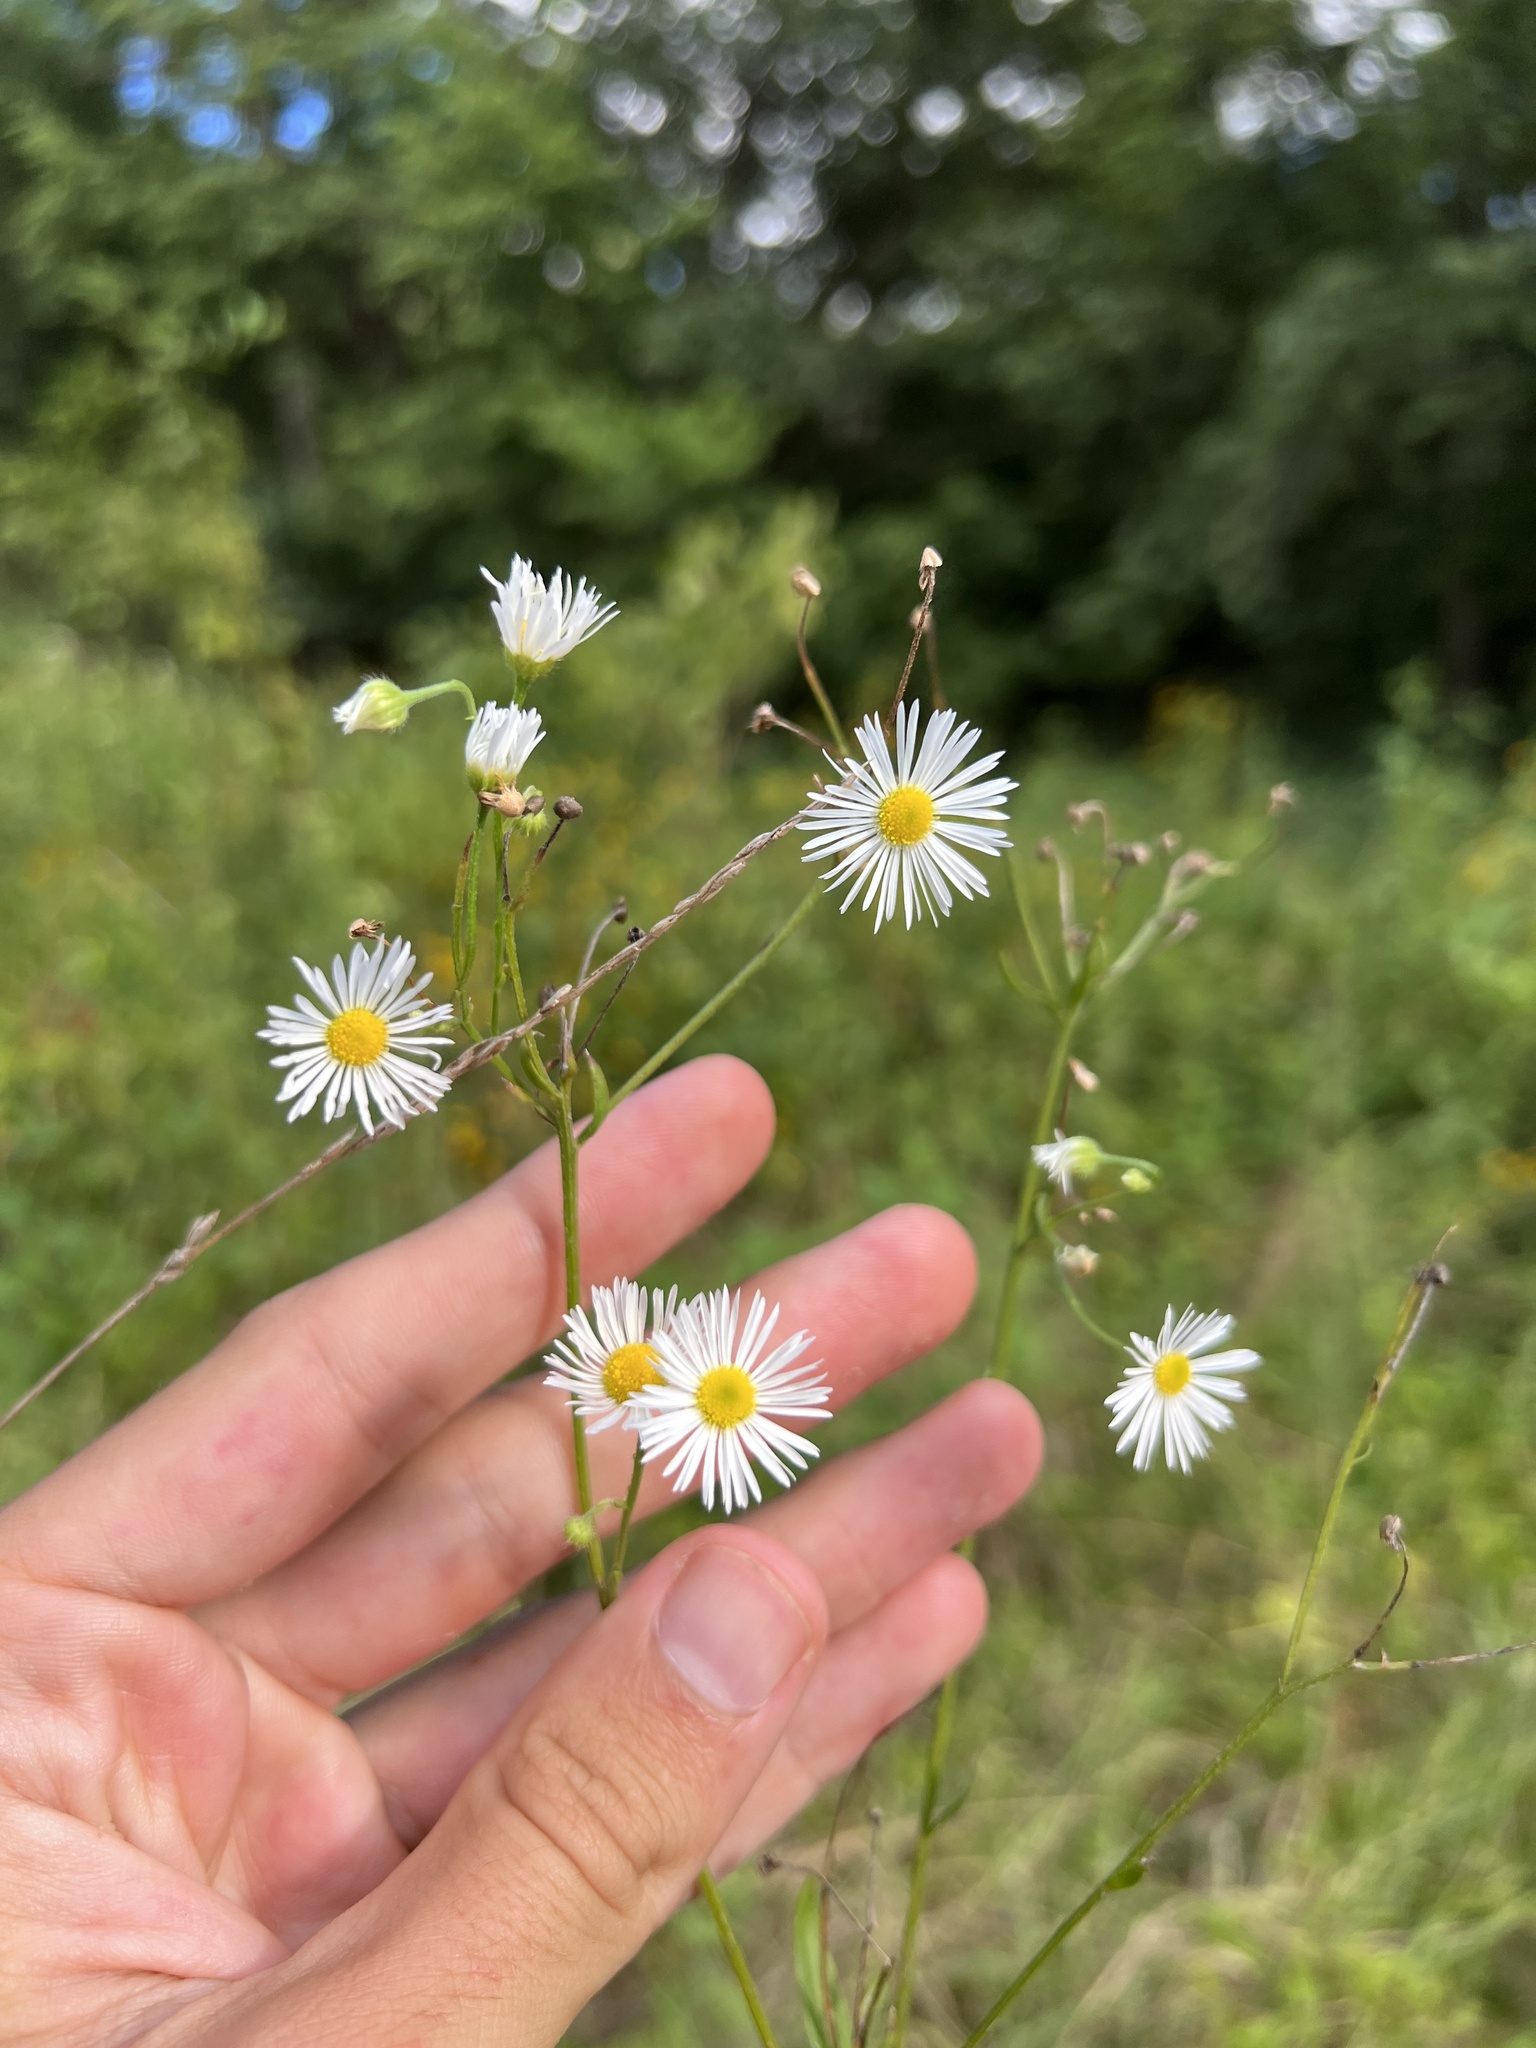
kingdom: Plantae
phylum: Tracheophyta
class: Magnoliopsida
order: Asterales
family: Asteraceae
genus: Erigeron
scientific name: Erigeron strigosus
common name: Common eastern fleabane
